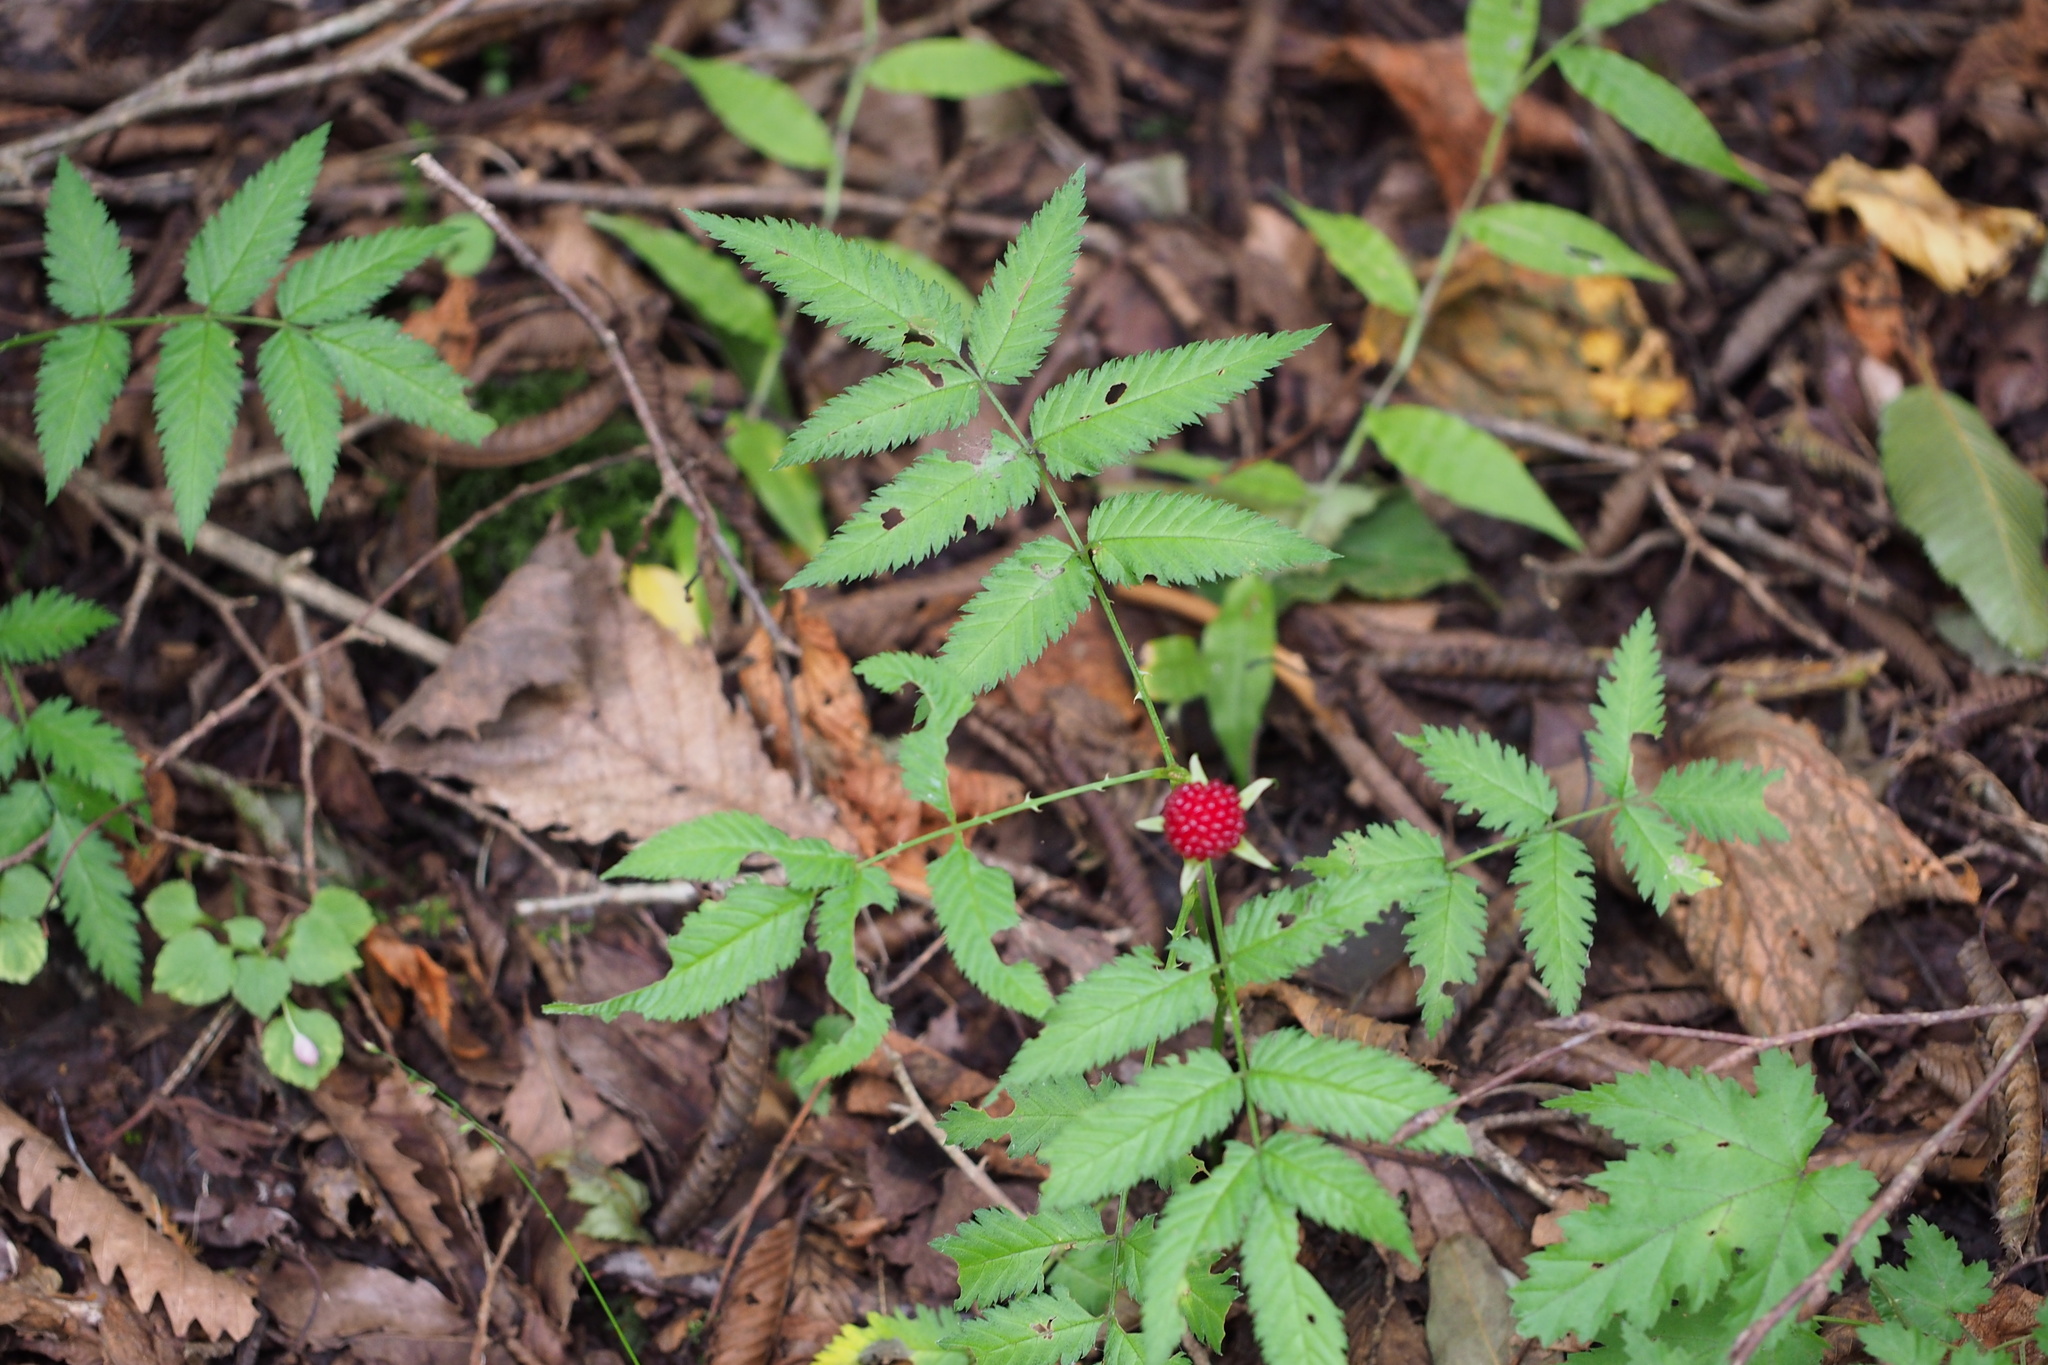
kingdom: Plantae
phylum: Tracheophyta
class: Magnoliopsida
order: Rosales
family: Rosaceae
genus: Rubus
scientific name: Rubus illecebrosus
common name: Strawberry raspberry
